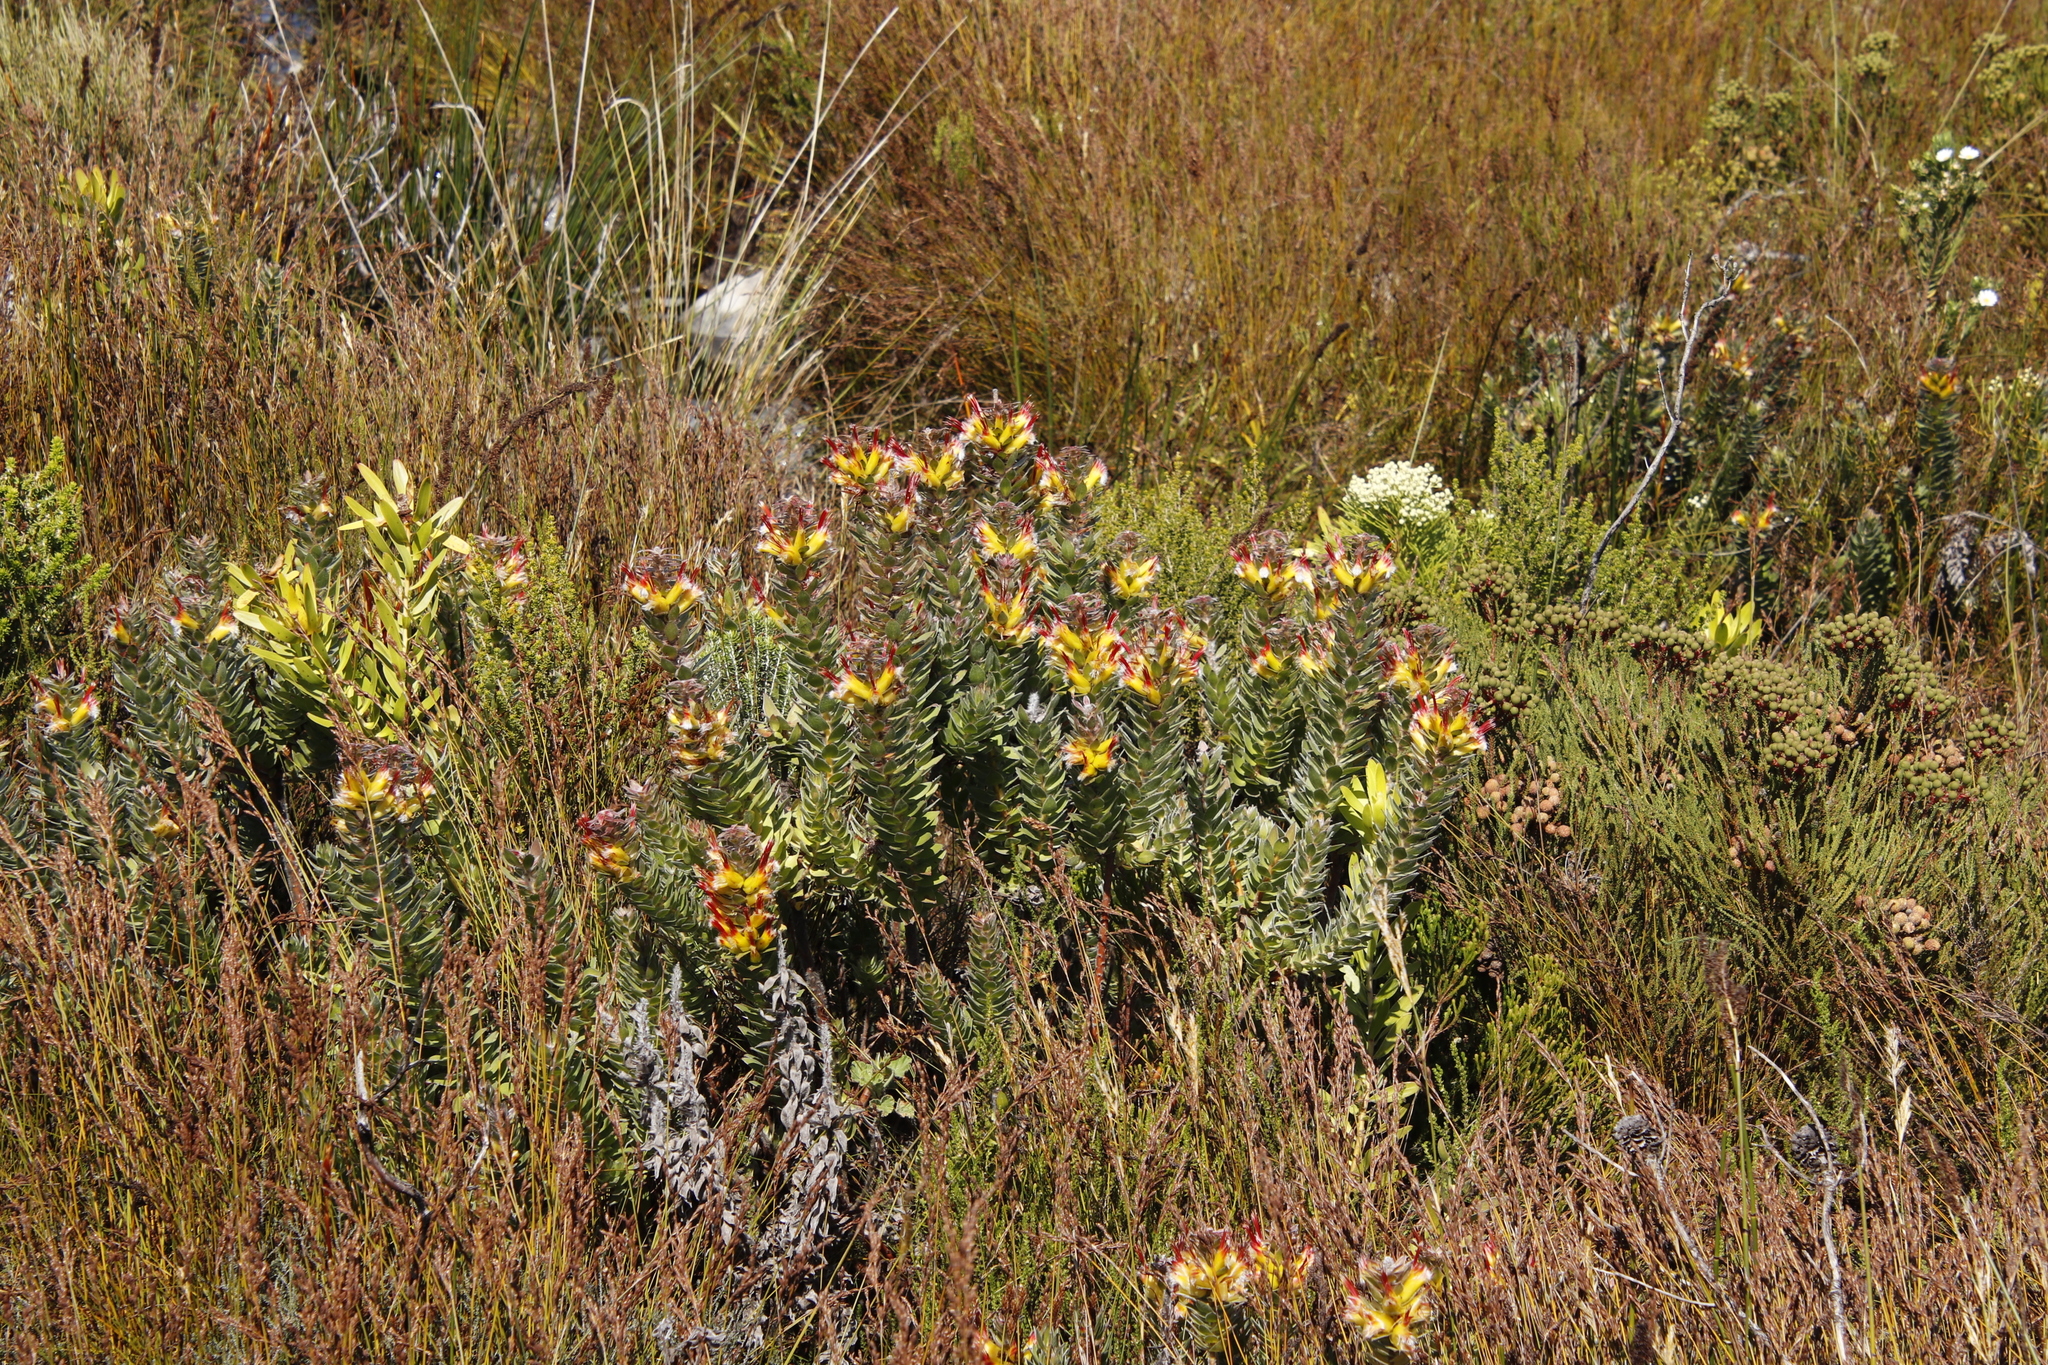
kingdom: Plantae
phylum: Tracheophyta
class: Magnoliopsida
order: Proteales
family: Proteaceae
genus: Mimetes
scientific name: Mimetes hirtus
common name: Marsh pagoda
